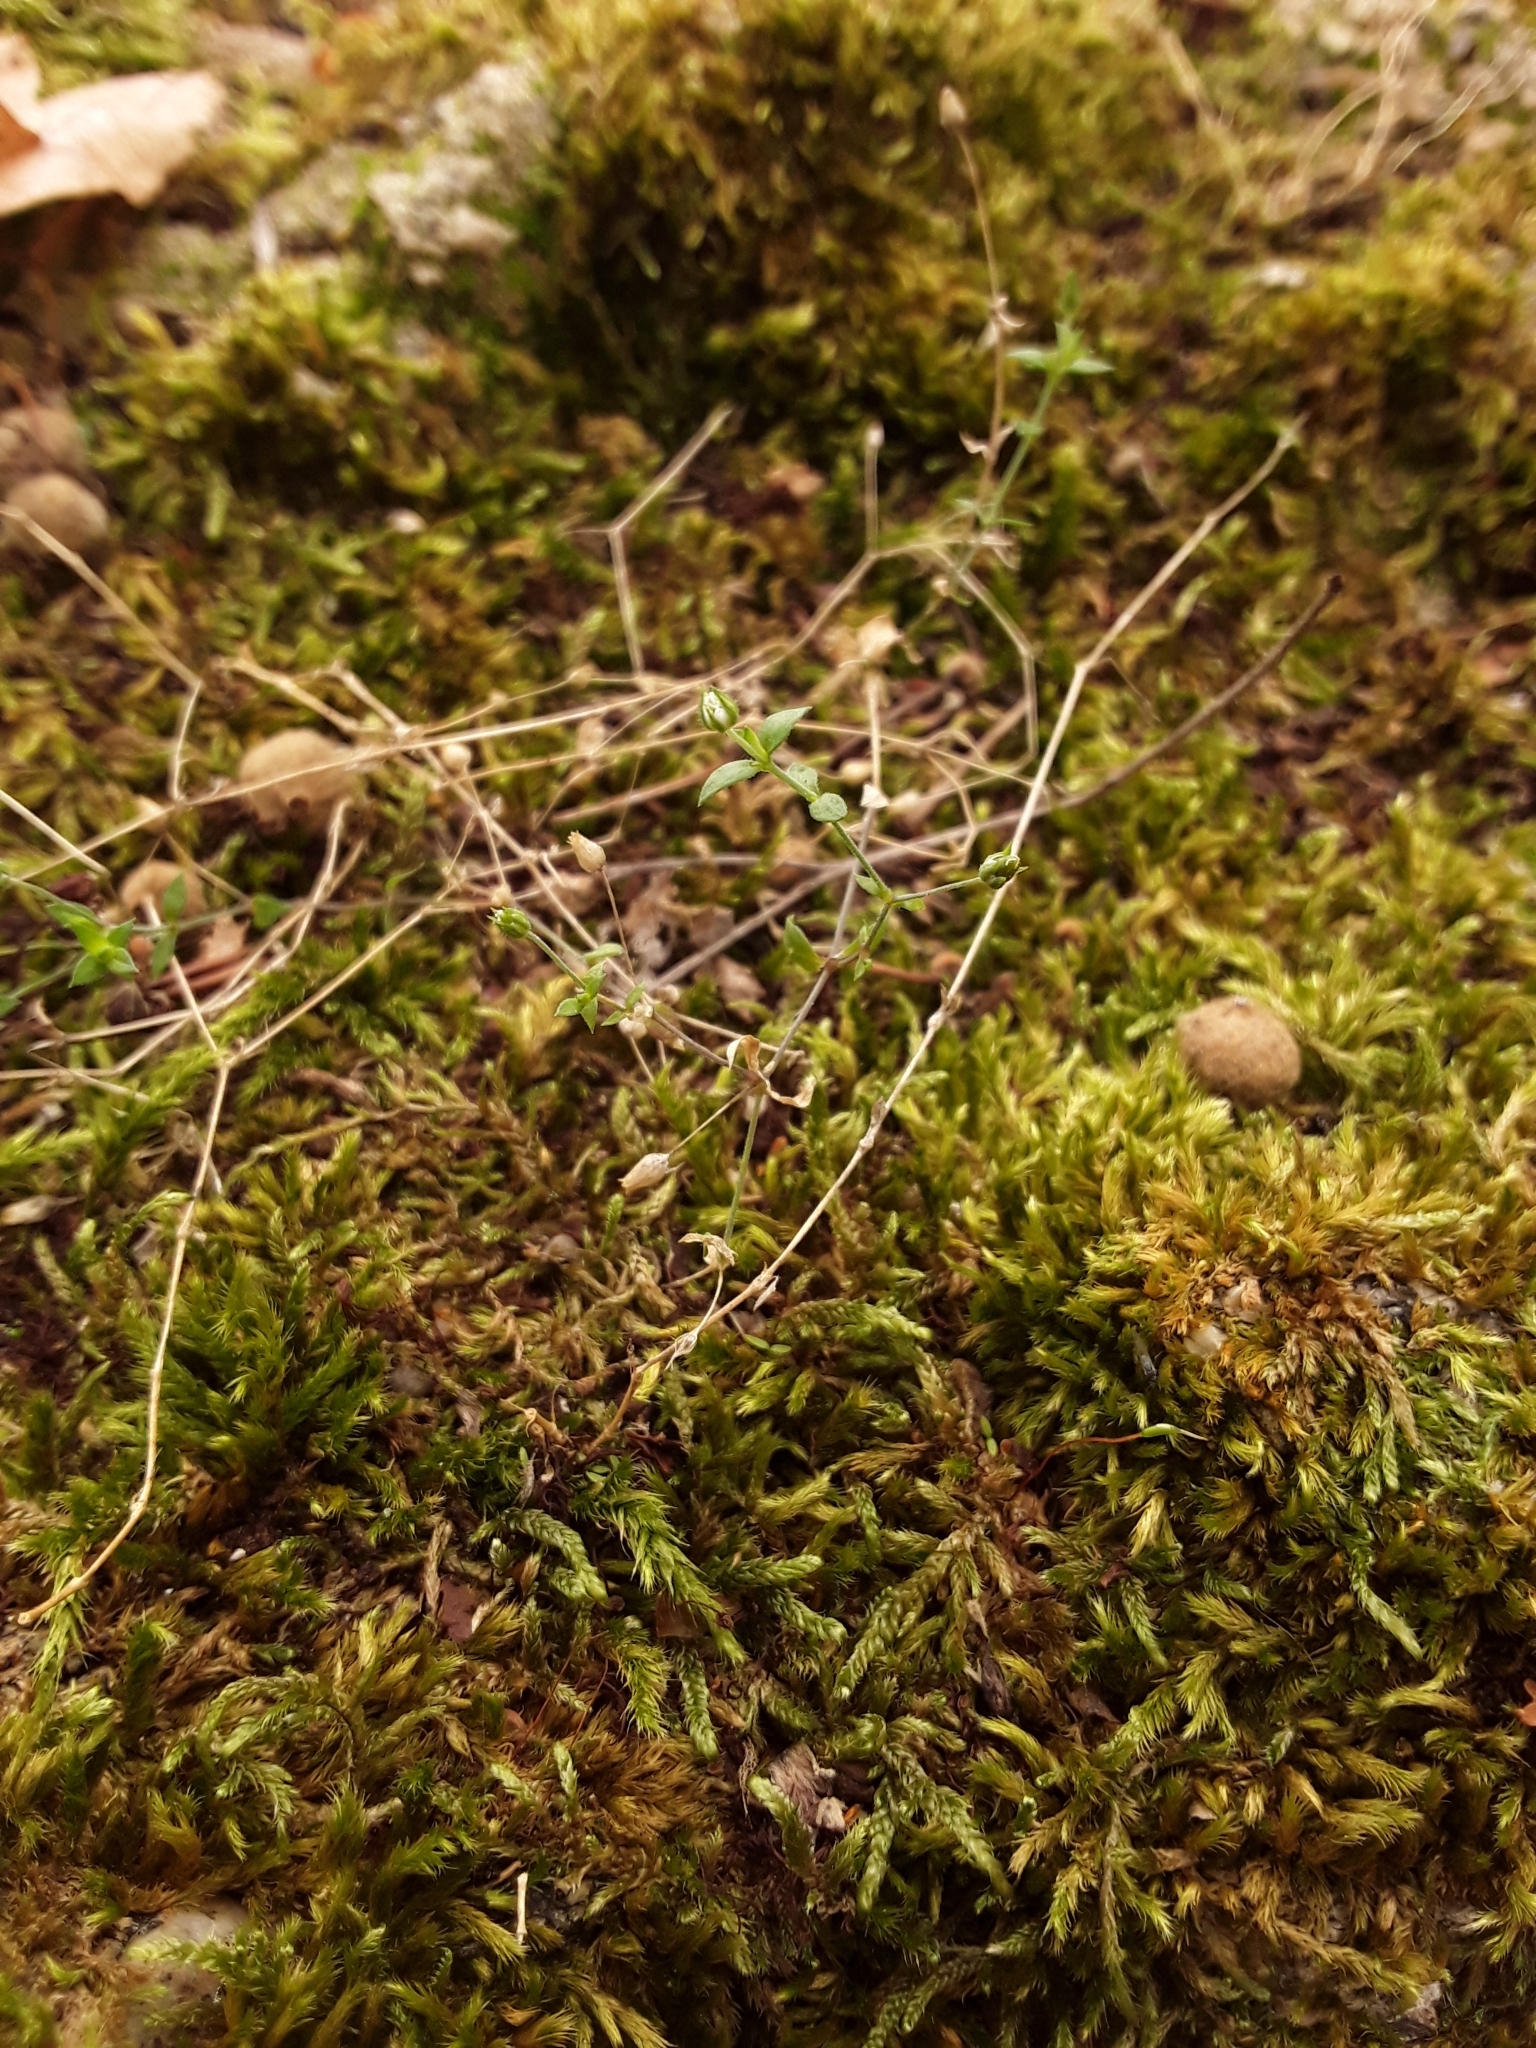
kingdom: Plantae
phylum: Tracheophyta
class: Magnoliopsida
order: Caryophyllales
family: Caryophyllaceae
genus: Arenaria
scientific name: Arenaria serpyllifolia
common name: Thyme-leaved sandwort
